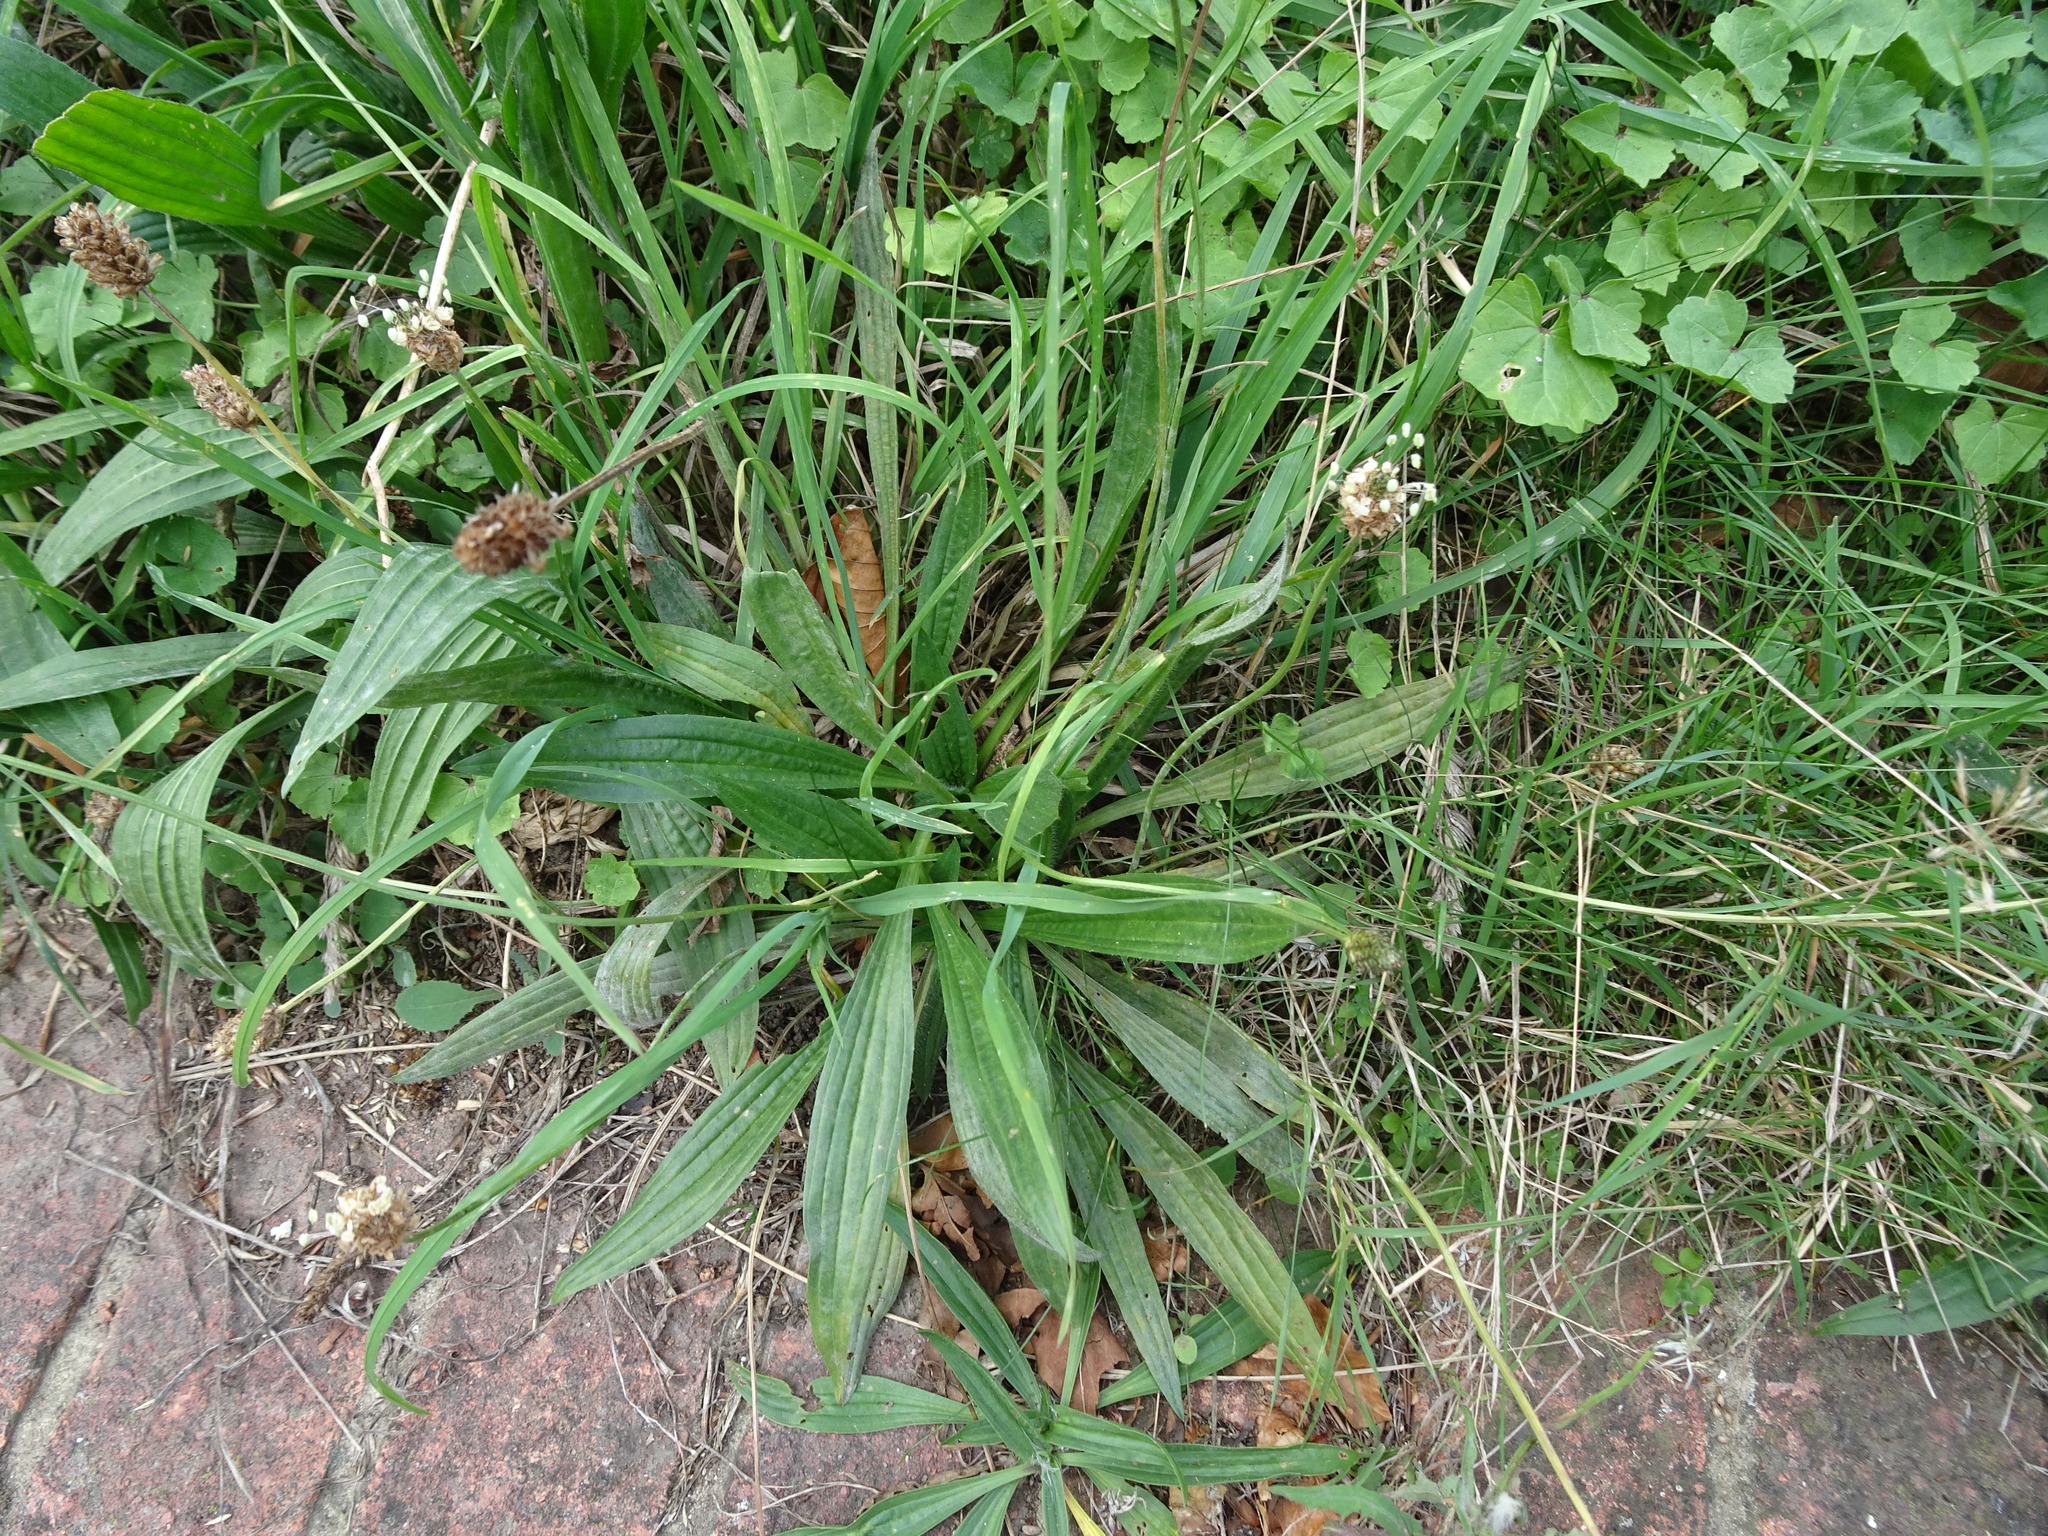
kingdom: Plantae
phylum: Tracheophyta
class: Magnoliopsida
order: Lamiales
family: Plantaginaceae
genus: Plantago
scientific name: Plantago lanceolata
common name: Ribwort plantain
